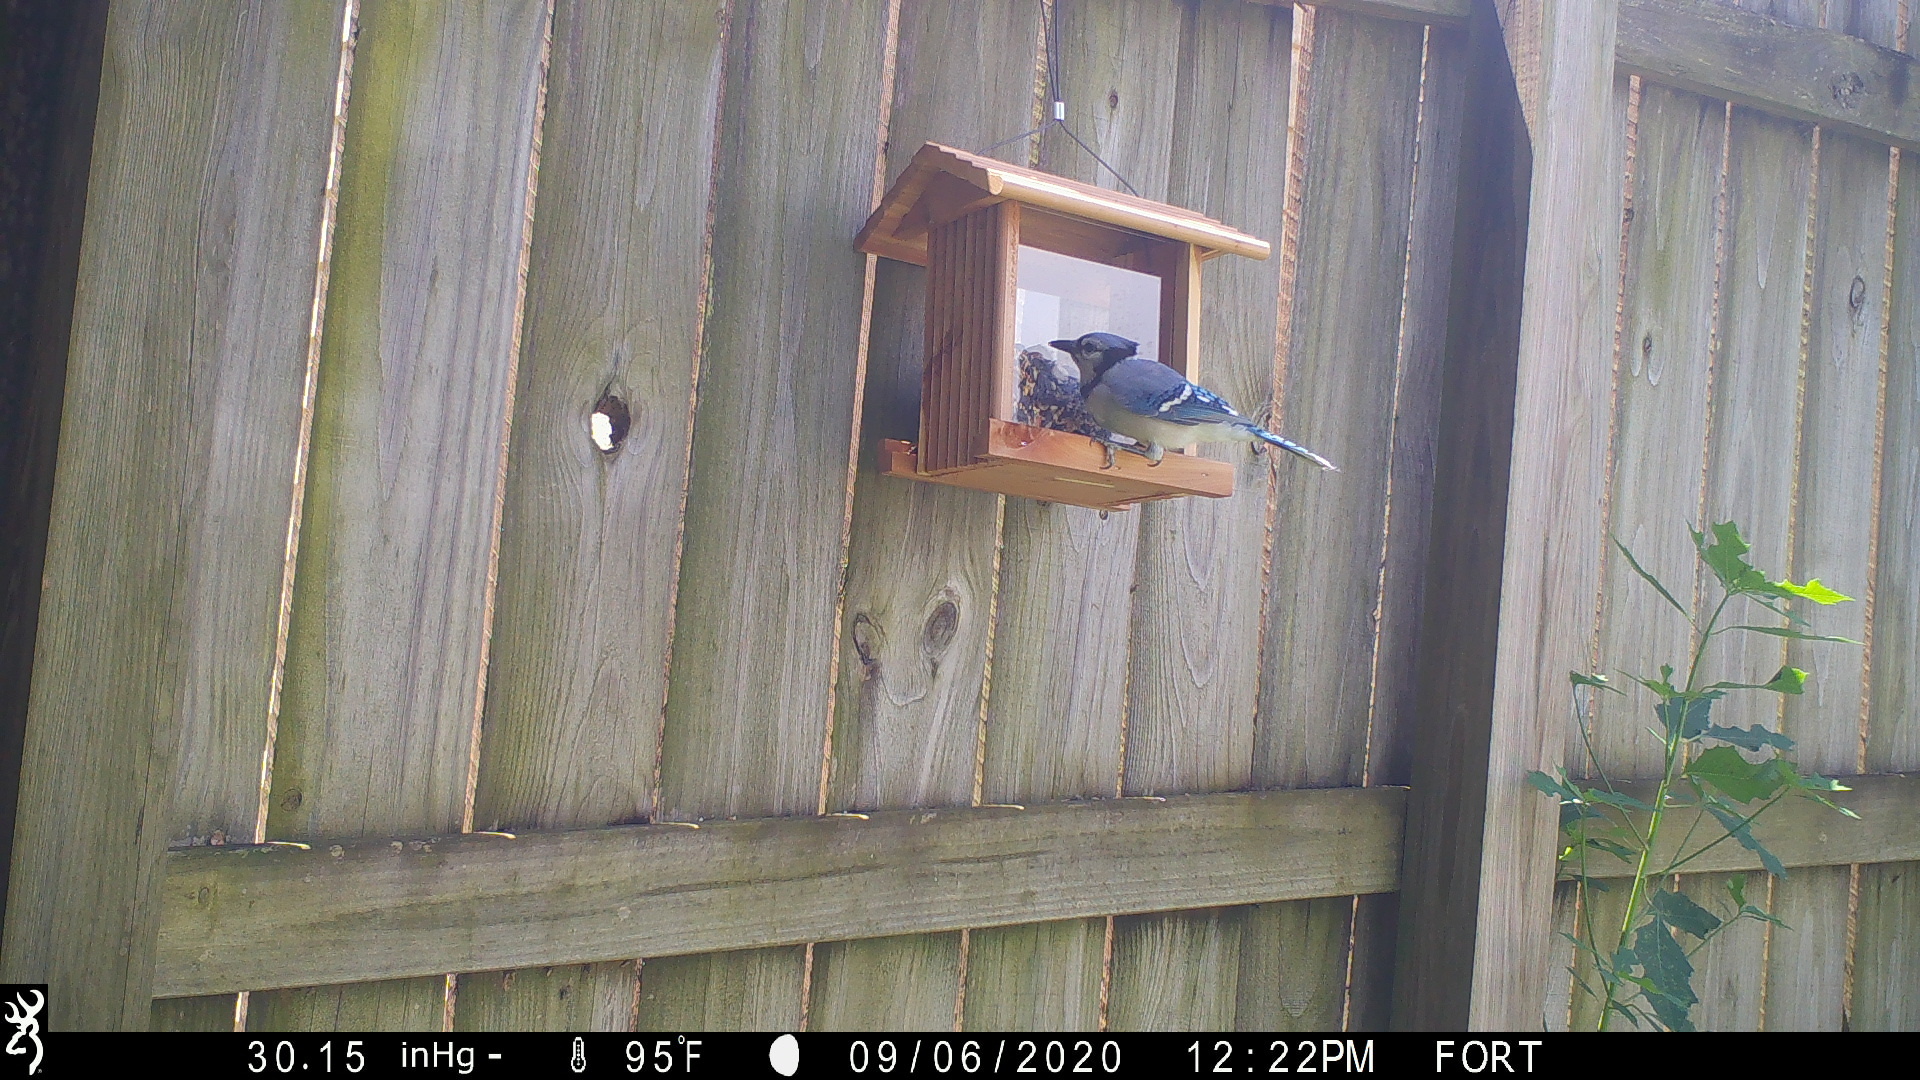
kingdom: Animalia
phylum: Chordata
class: Aves
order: Passeriformes
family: Corvidae
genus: Cyanocitta
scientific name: Cyanocitta cristata
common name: Blue jay
